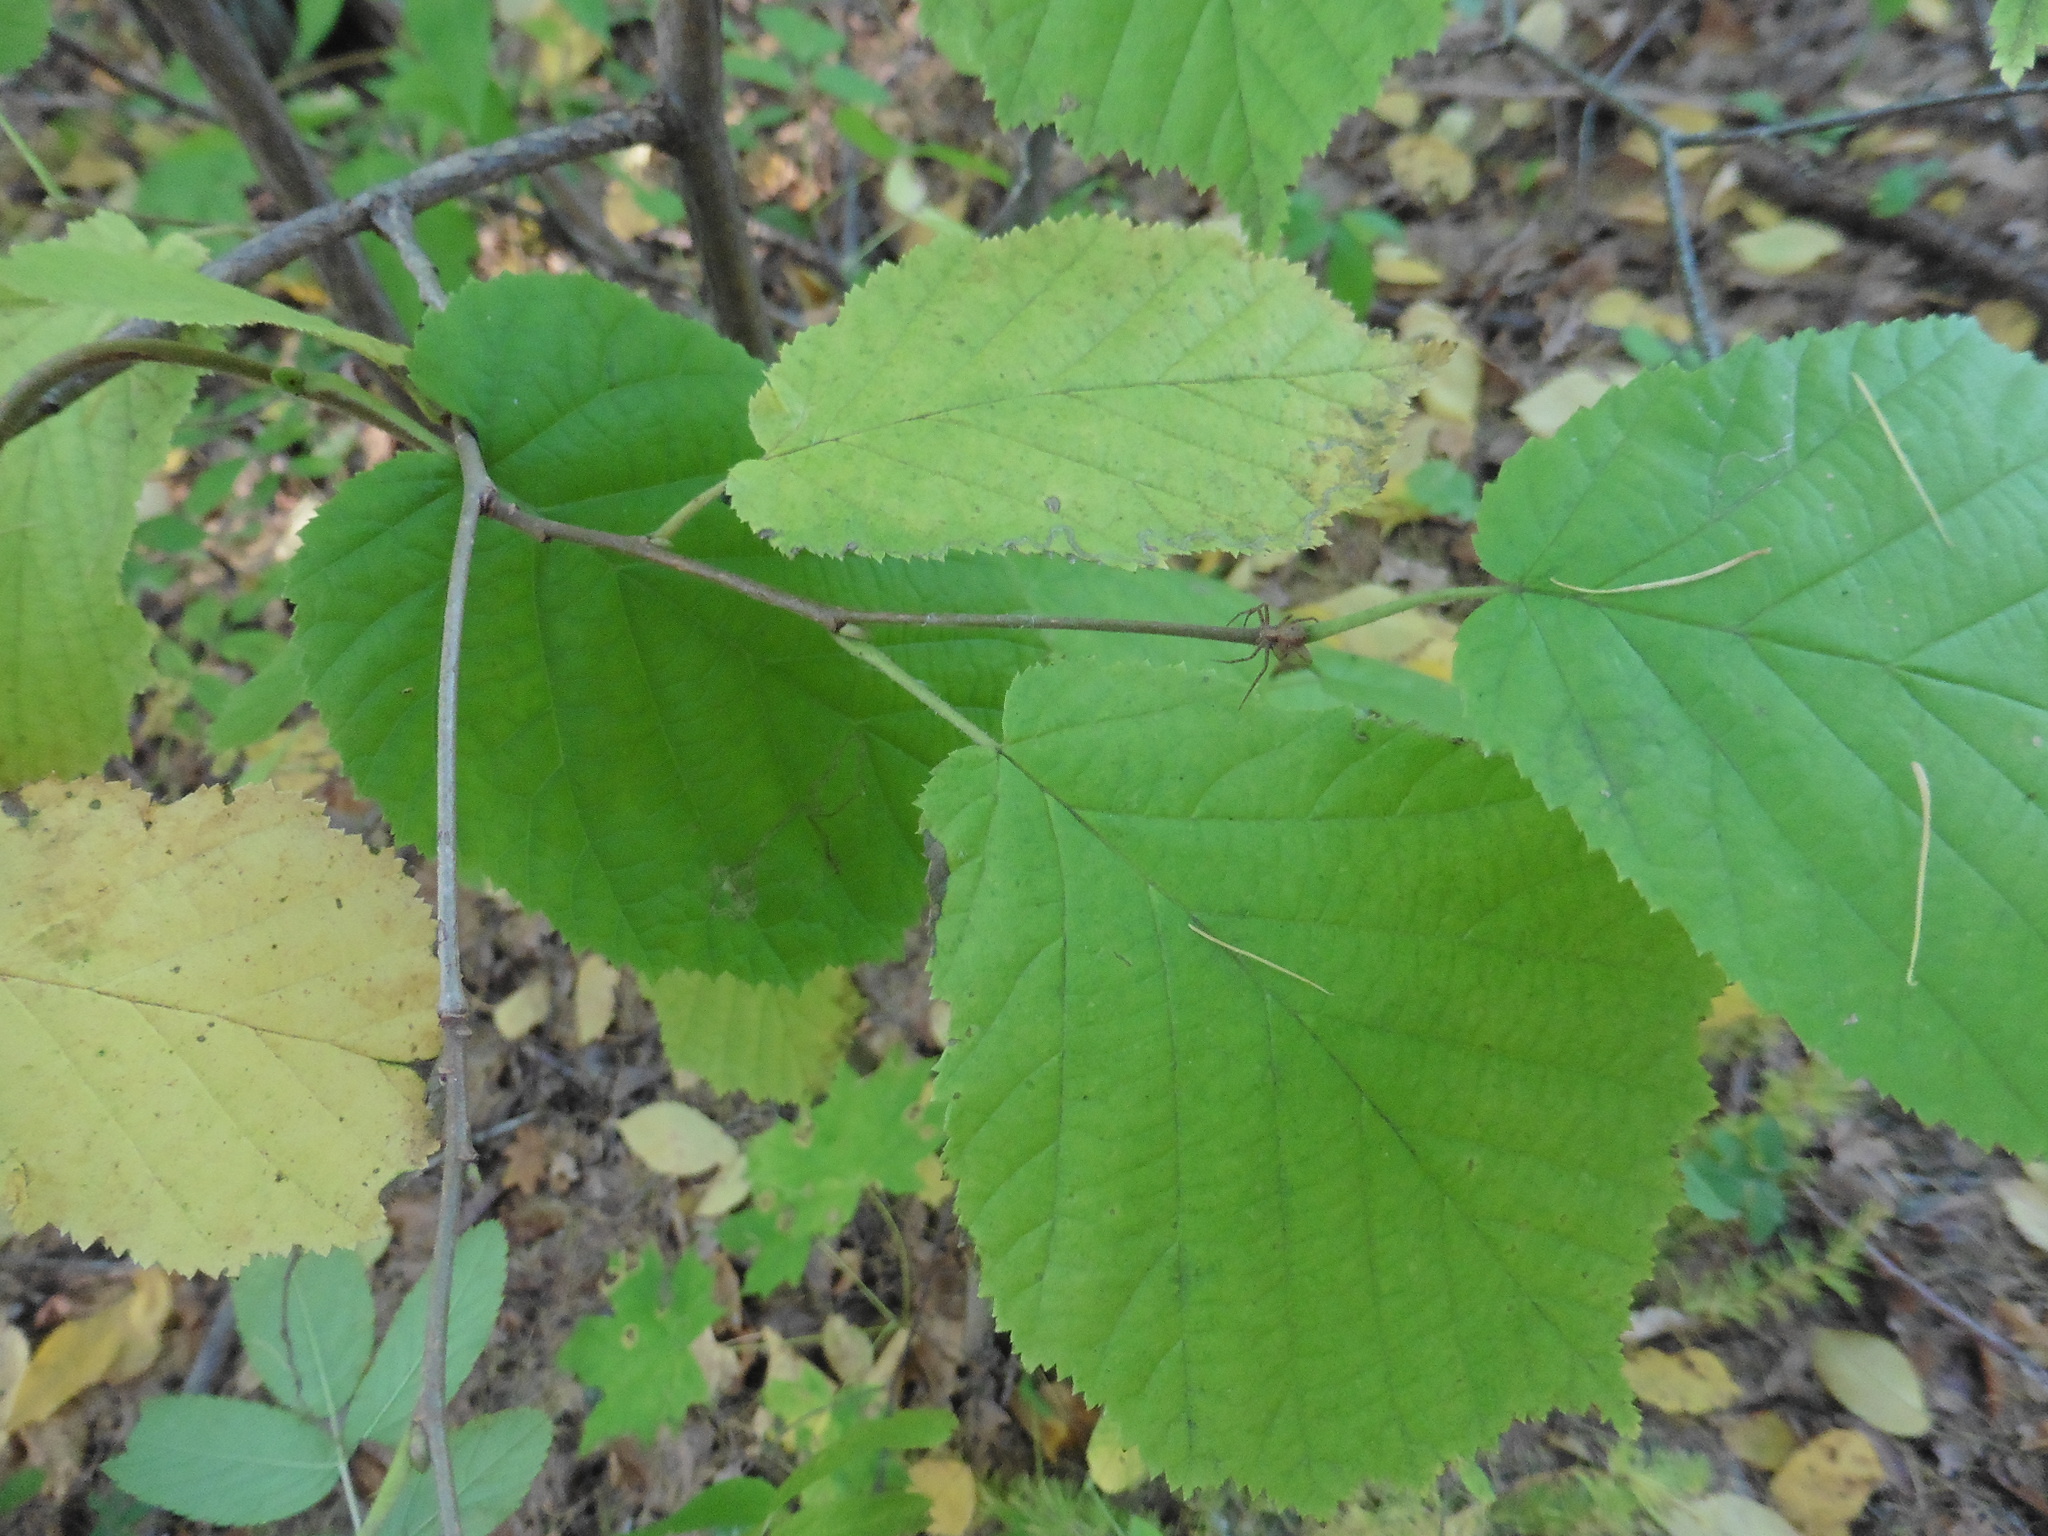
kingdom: Plantae
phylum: Tracheophyta
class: Magnoliopsida
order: Fagales
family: Betulaceae
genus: Corylus
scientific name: Corylus avellana
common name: European hazel
